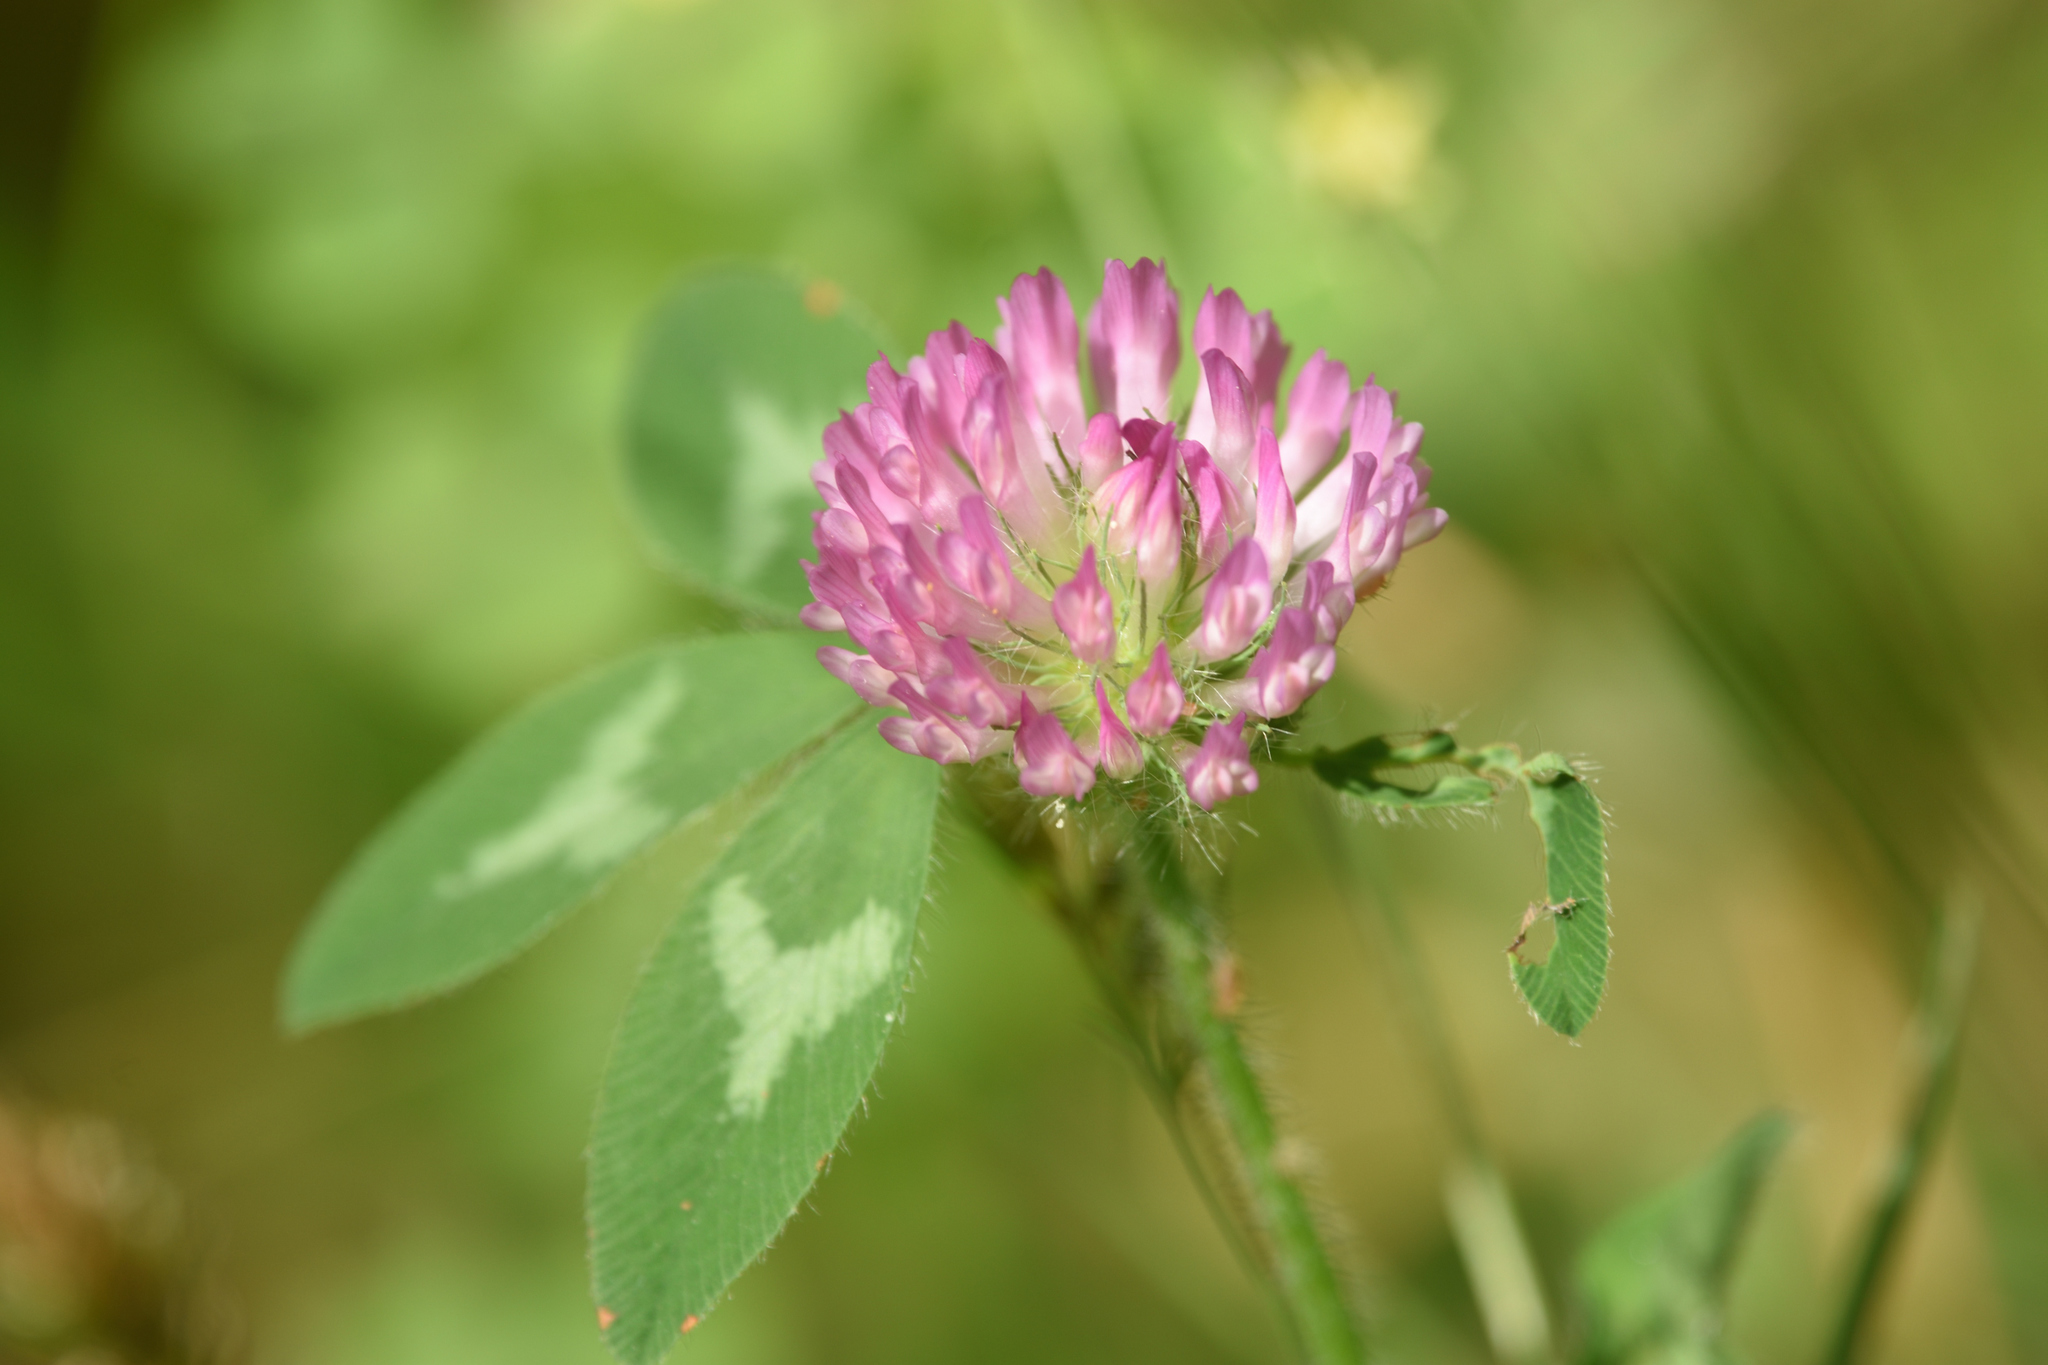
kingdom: Plantae
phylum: Tracheophyta
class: Magnoliopsida
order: Fabales
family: Fabaceae
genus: Trifolium
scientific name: Trifolium pratense
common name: Red clover
